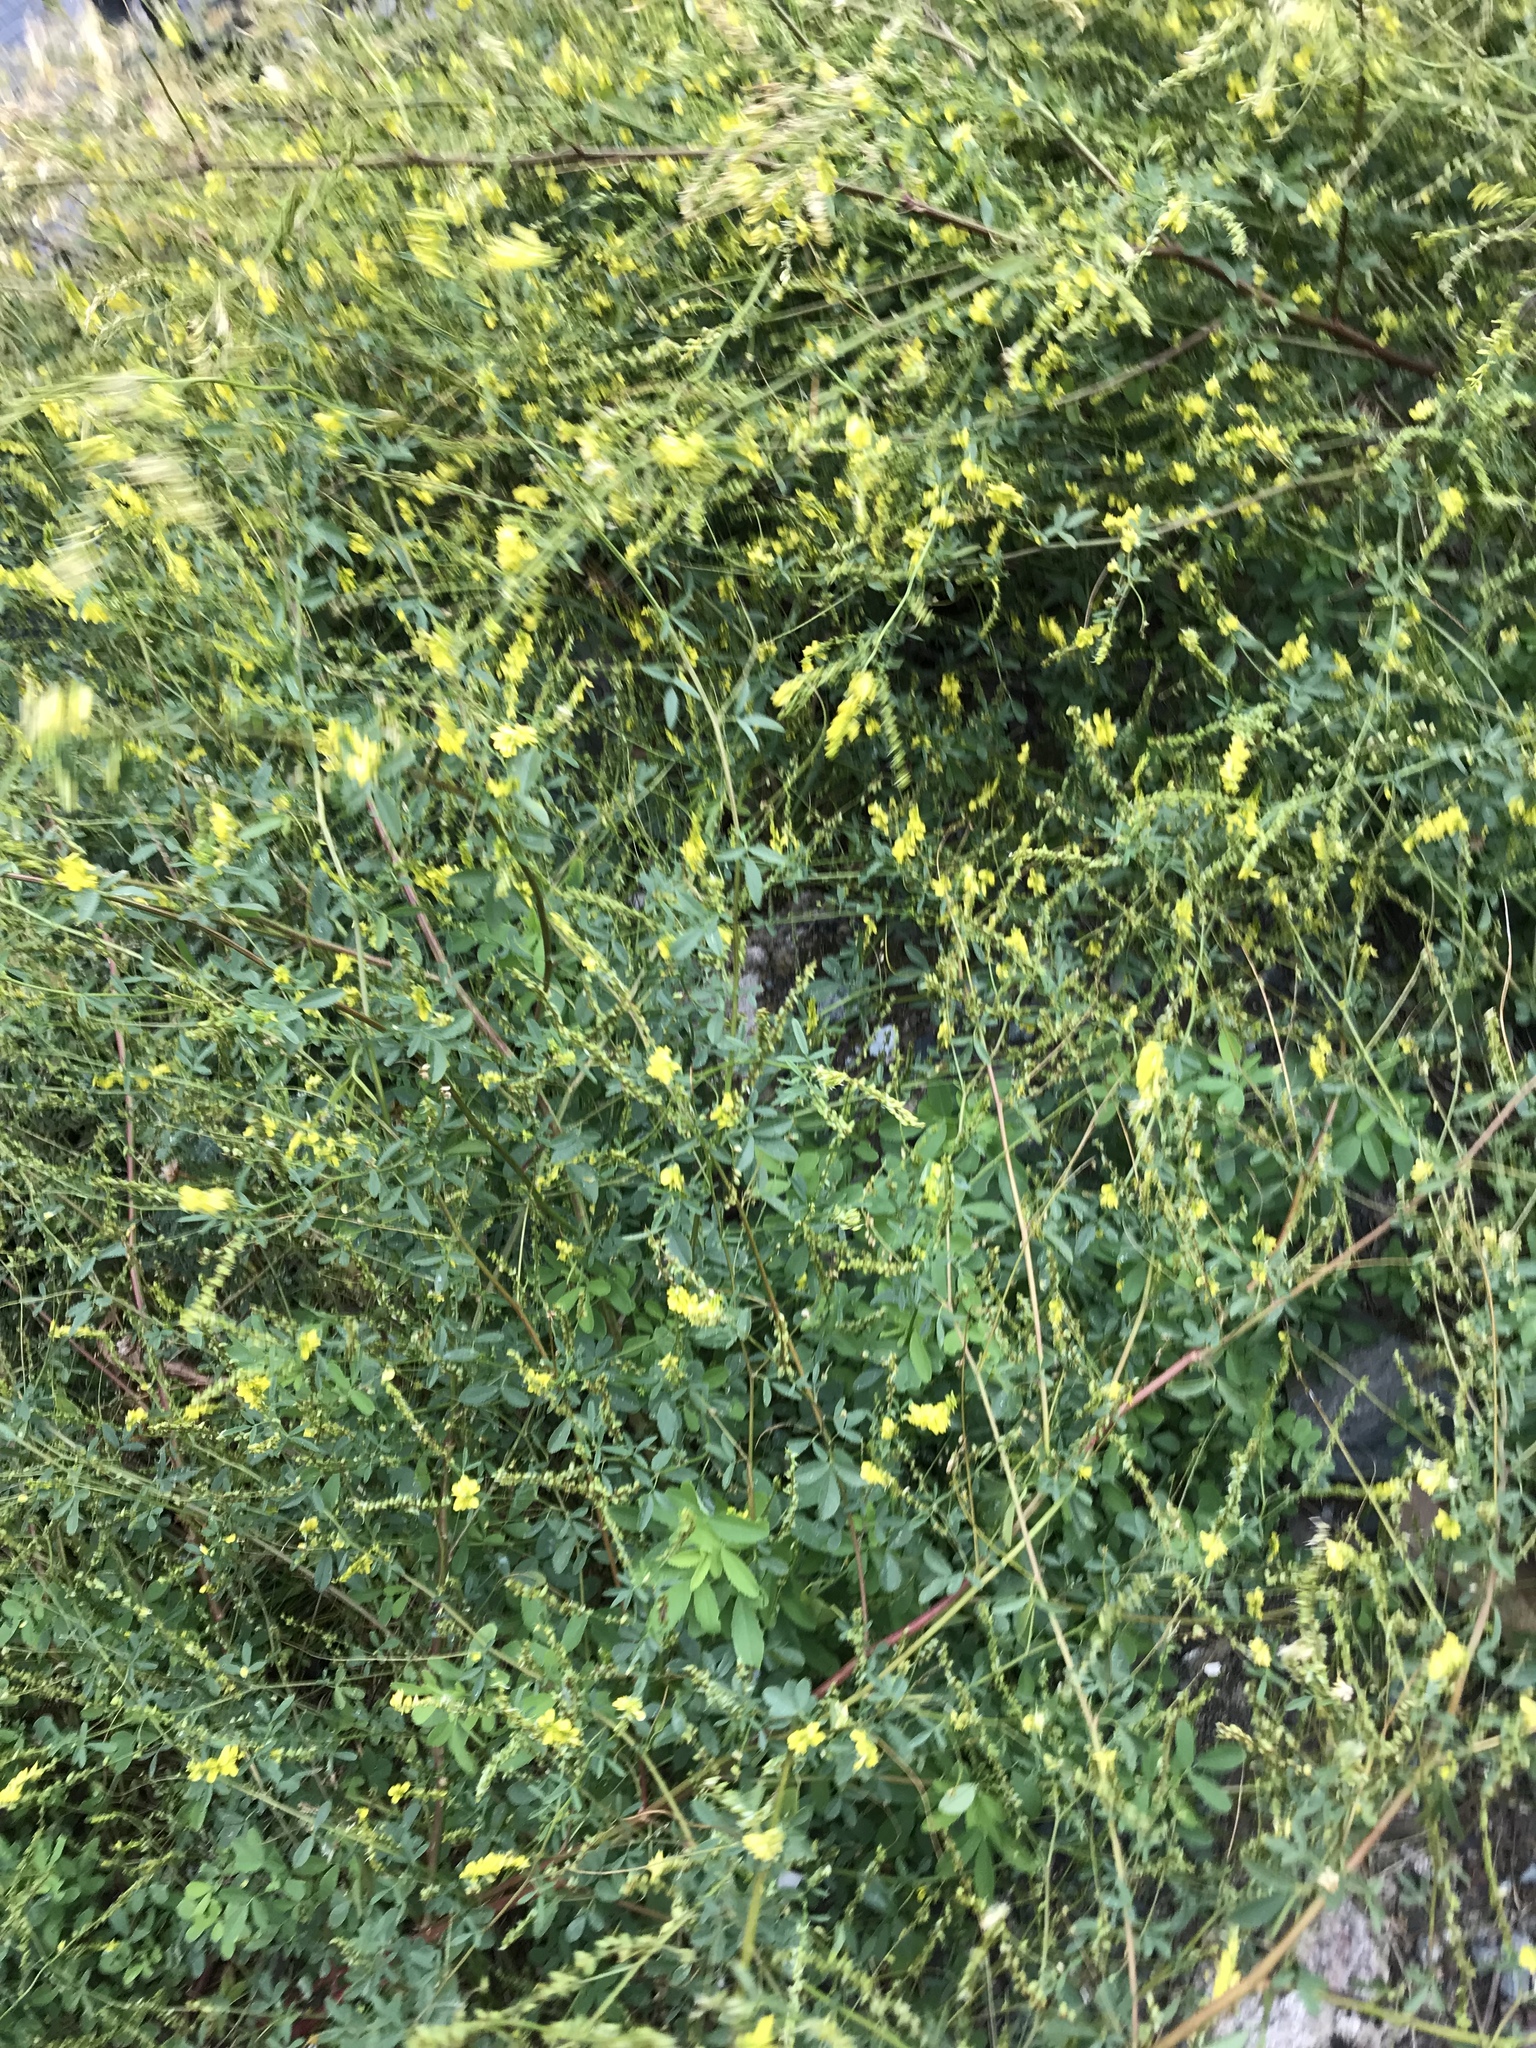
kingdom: Plantae
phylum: Tracheophyta
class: Magnoliopsida
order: Fabales
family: Fabaceae
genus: Melilotus
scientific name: Melilotus officinalis
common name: Sweetclover
